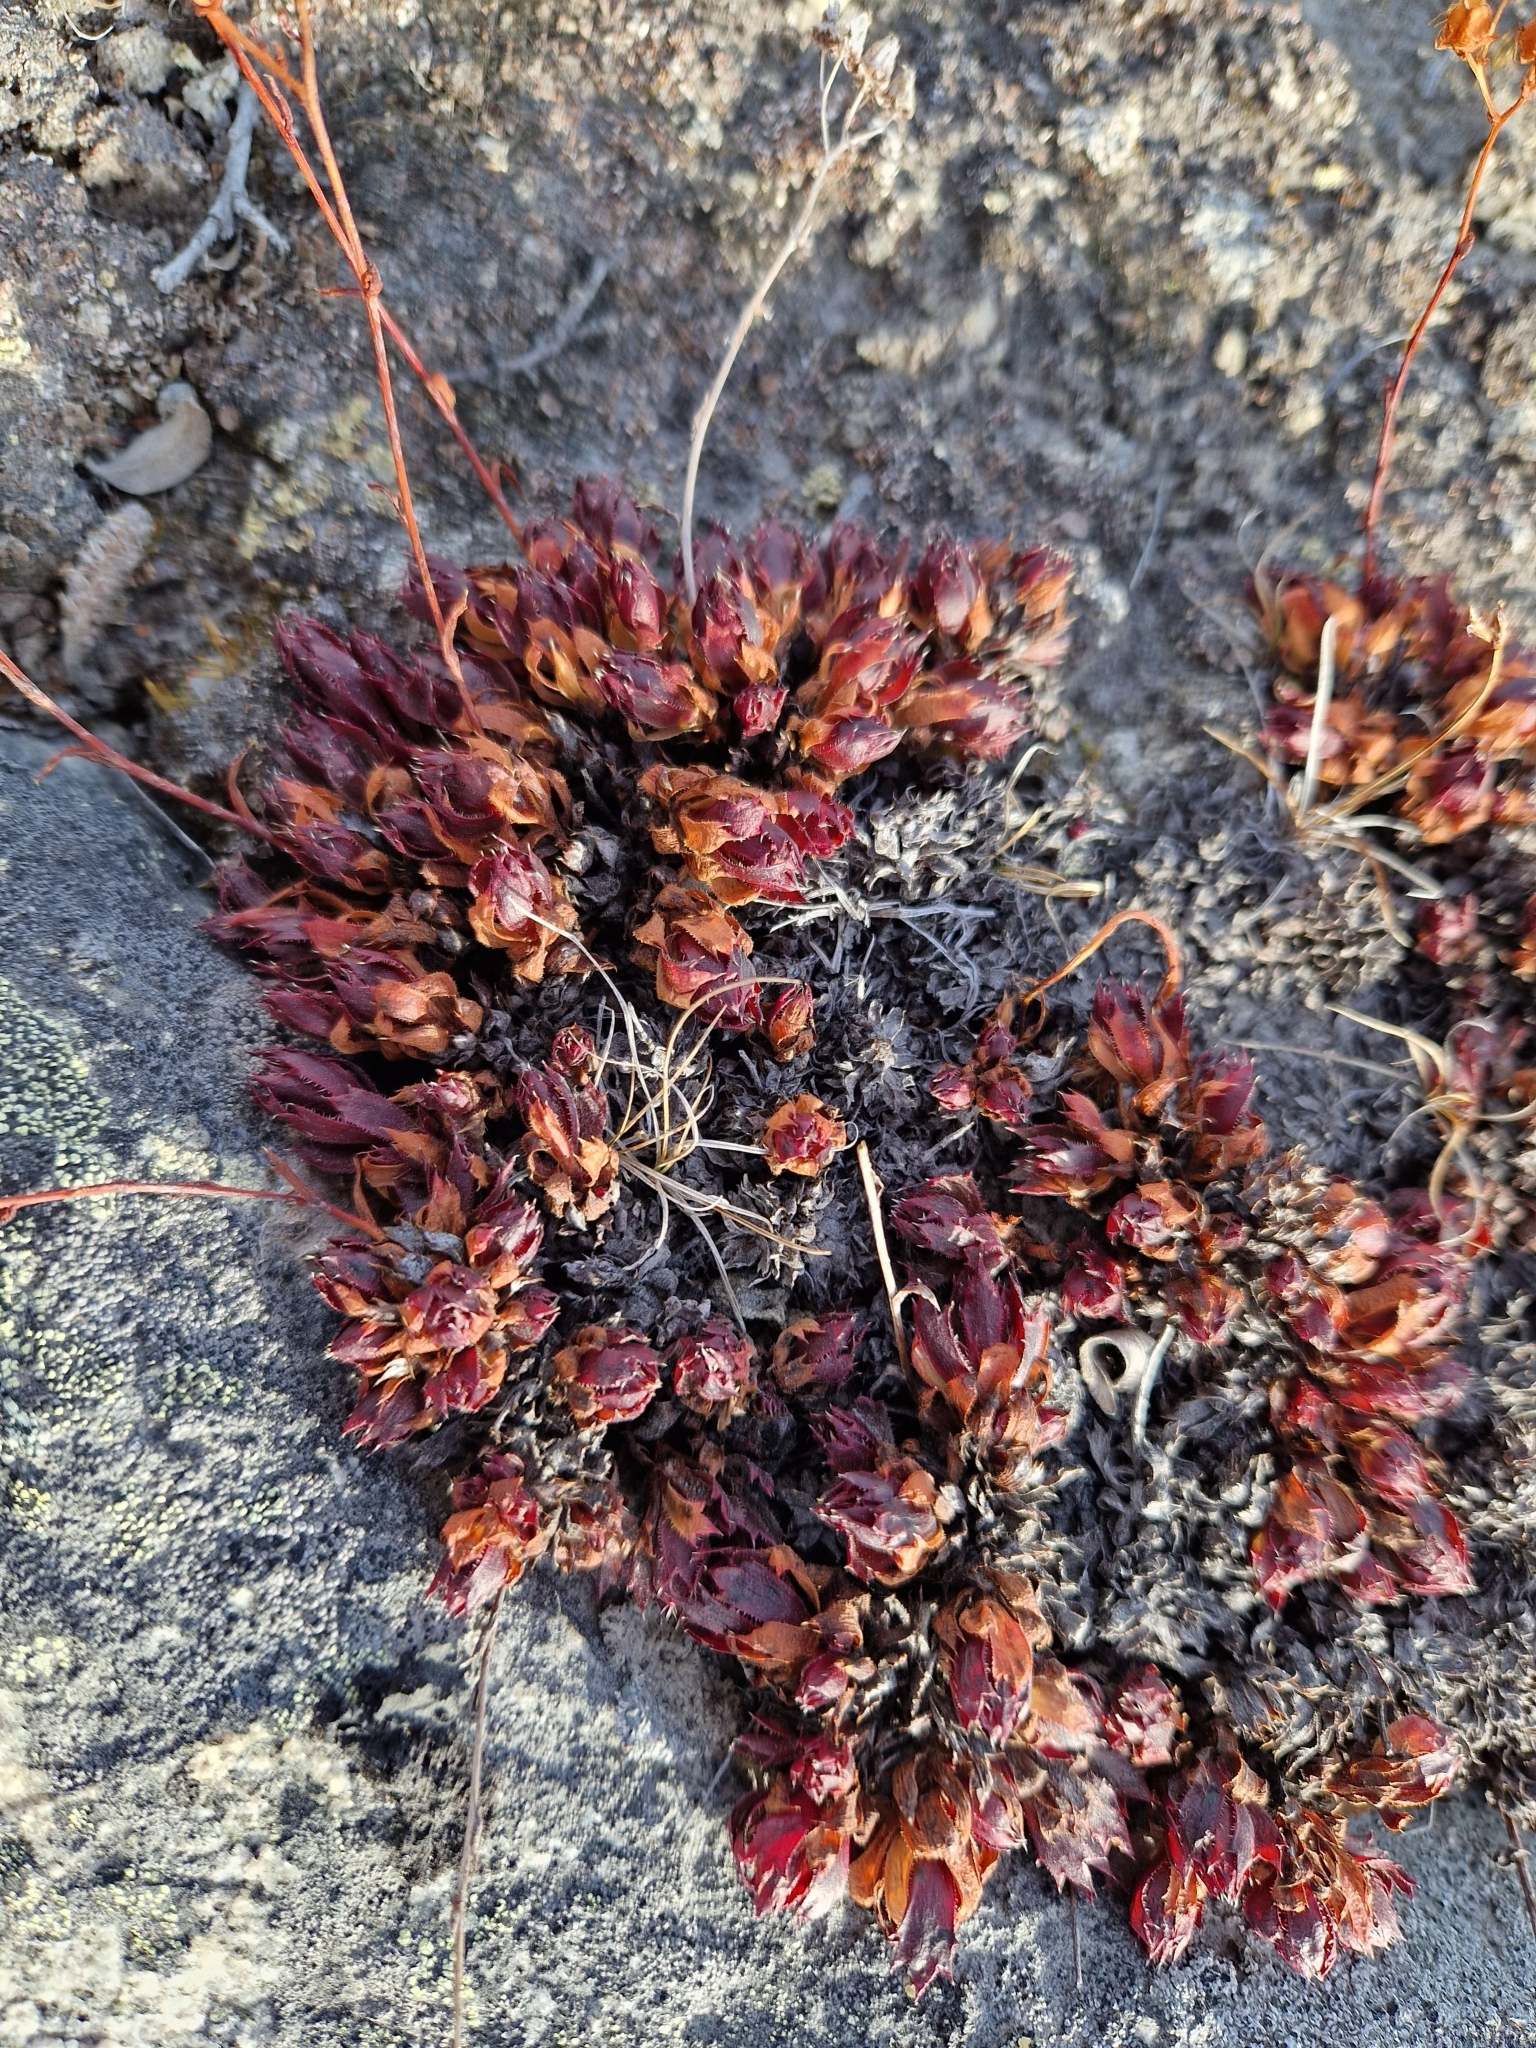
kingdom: Plantae
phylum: Tracheophyta
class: Magnoliopsida
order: Saxifragales
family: Saxifragaceae
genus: Saxifraga
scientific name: Saxifraga tricuspidata
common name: Prickly saxifrage
